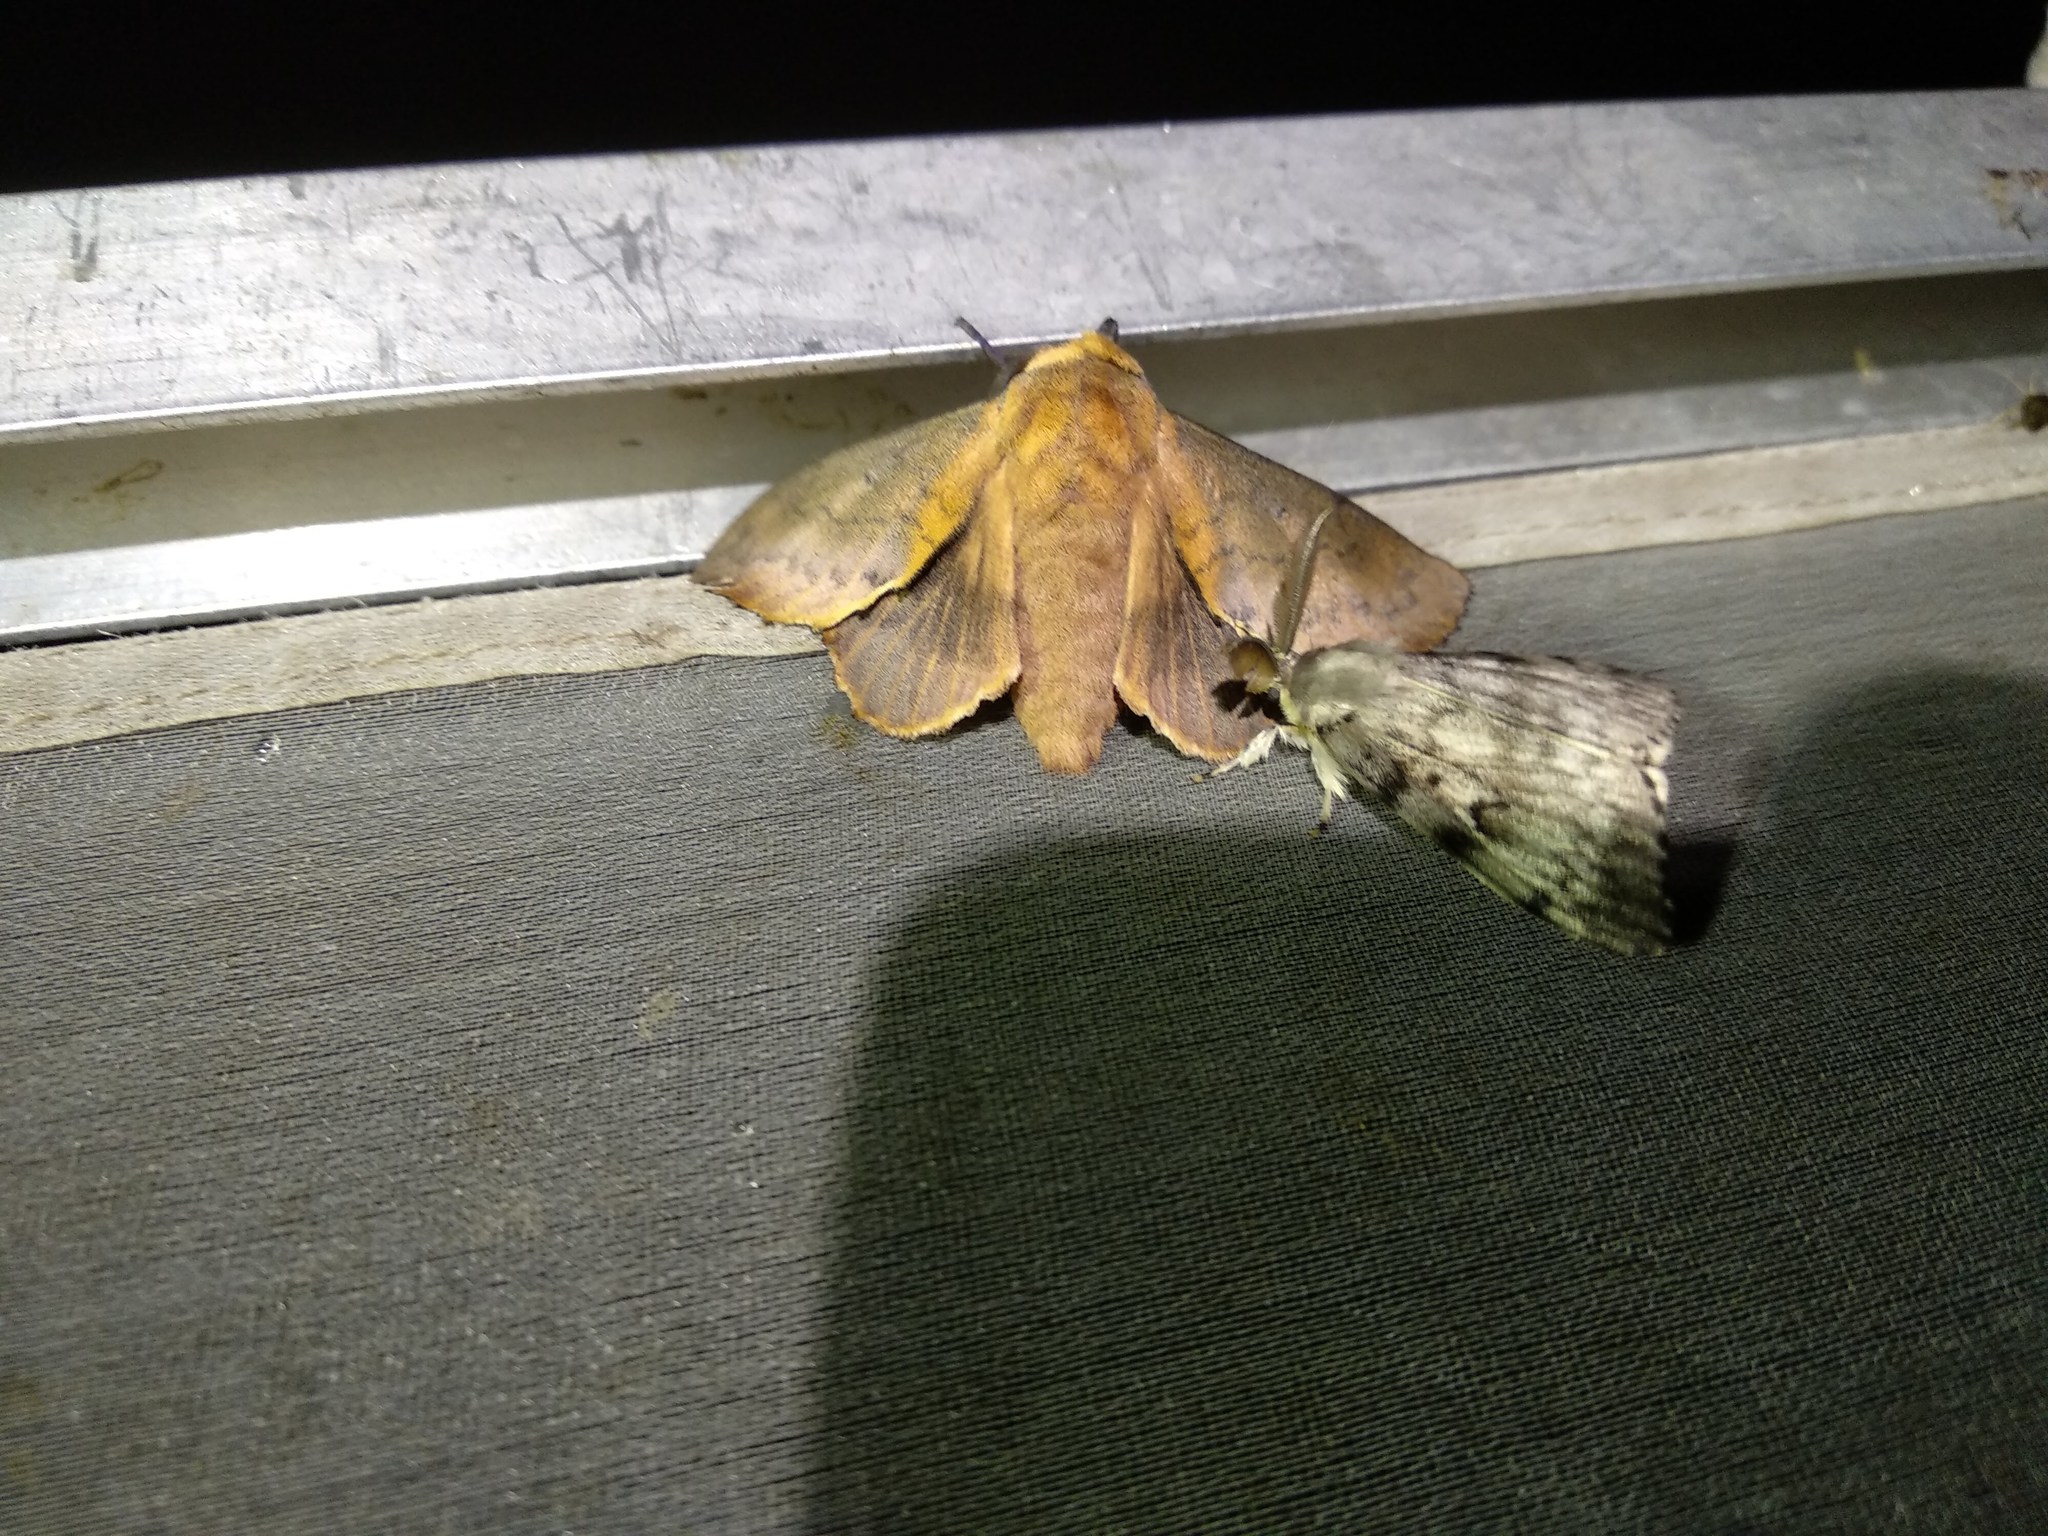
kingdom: Animalia
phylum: Arthropoda
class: Insecta
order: Lepidoptera
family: Lasiocampidae
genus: Gastropacha
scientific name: Gastropacha quercifolia
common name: Lappet
